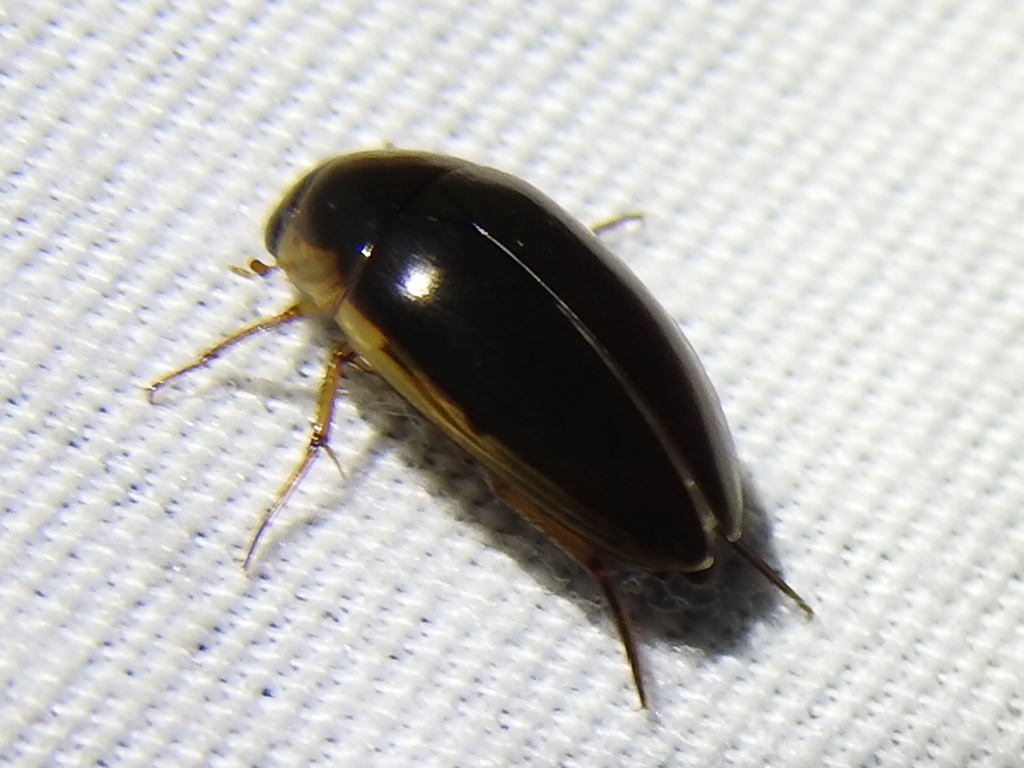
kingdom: Animalia
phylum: Arthropoda
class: Insecta
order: Coleoptera
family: Hydrophilidae
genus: Tropisternus
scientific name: Tropisternus lateralis
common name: Lateral-banded water scavenger beetle
